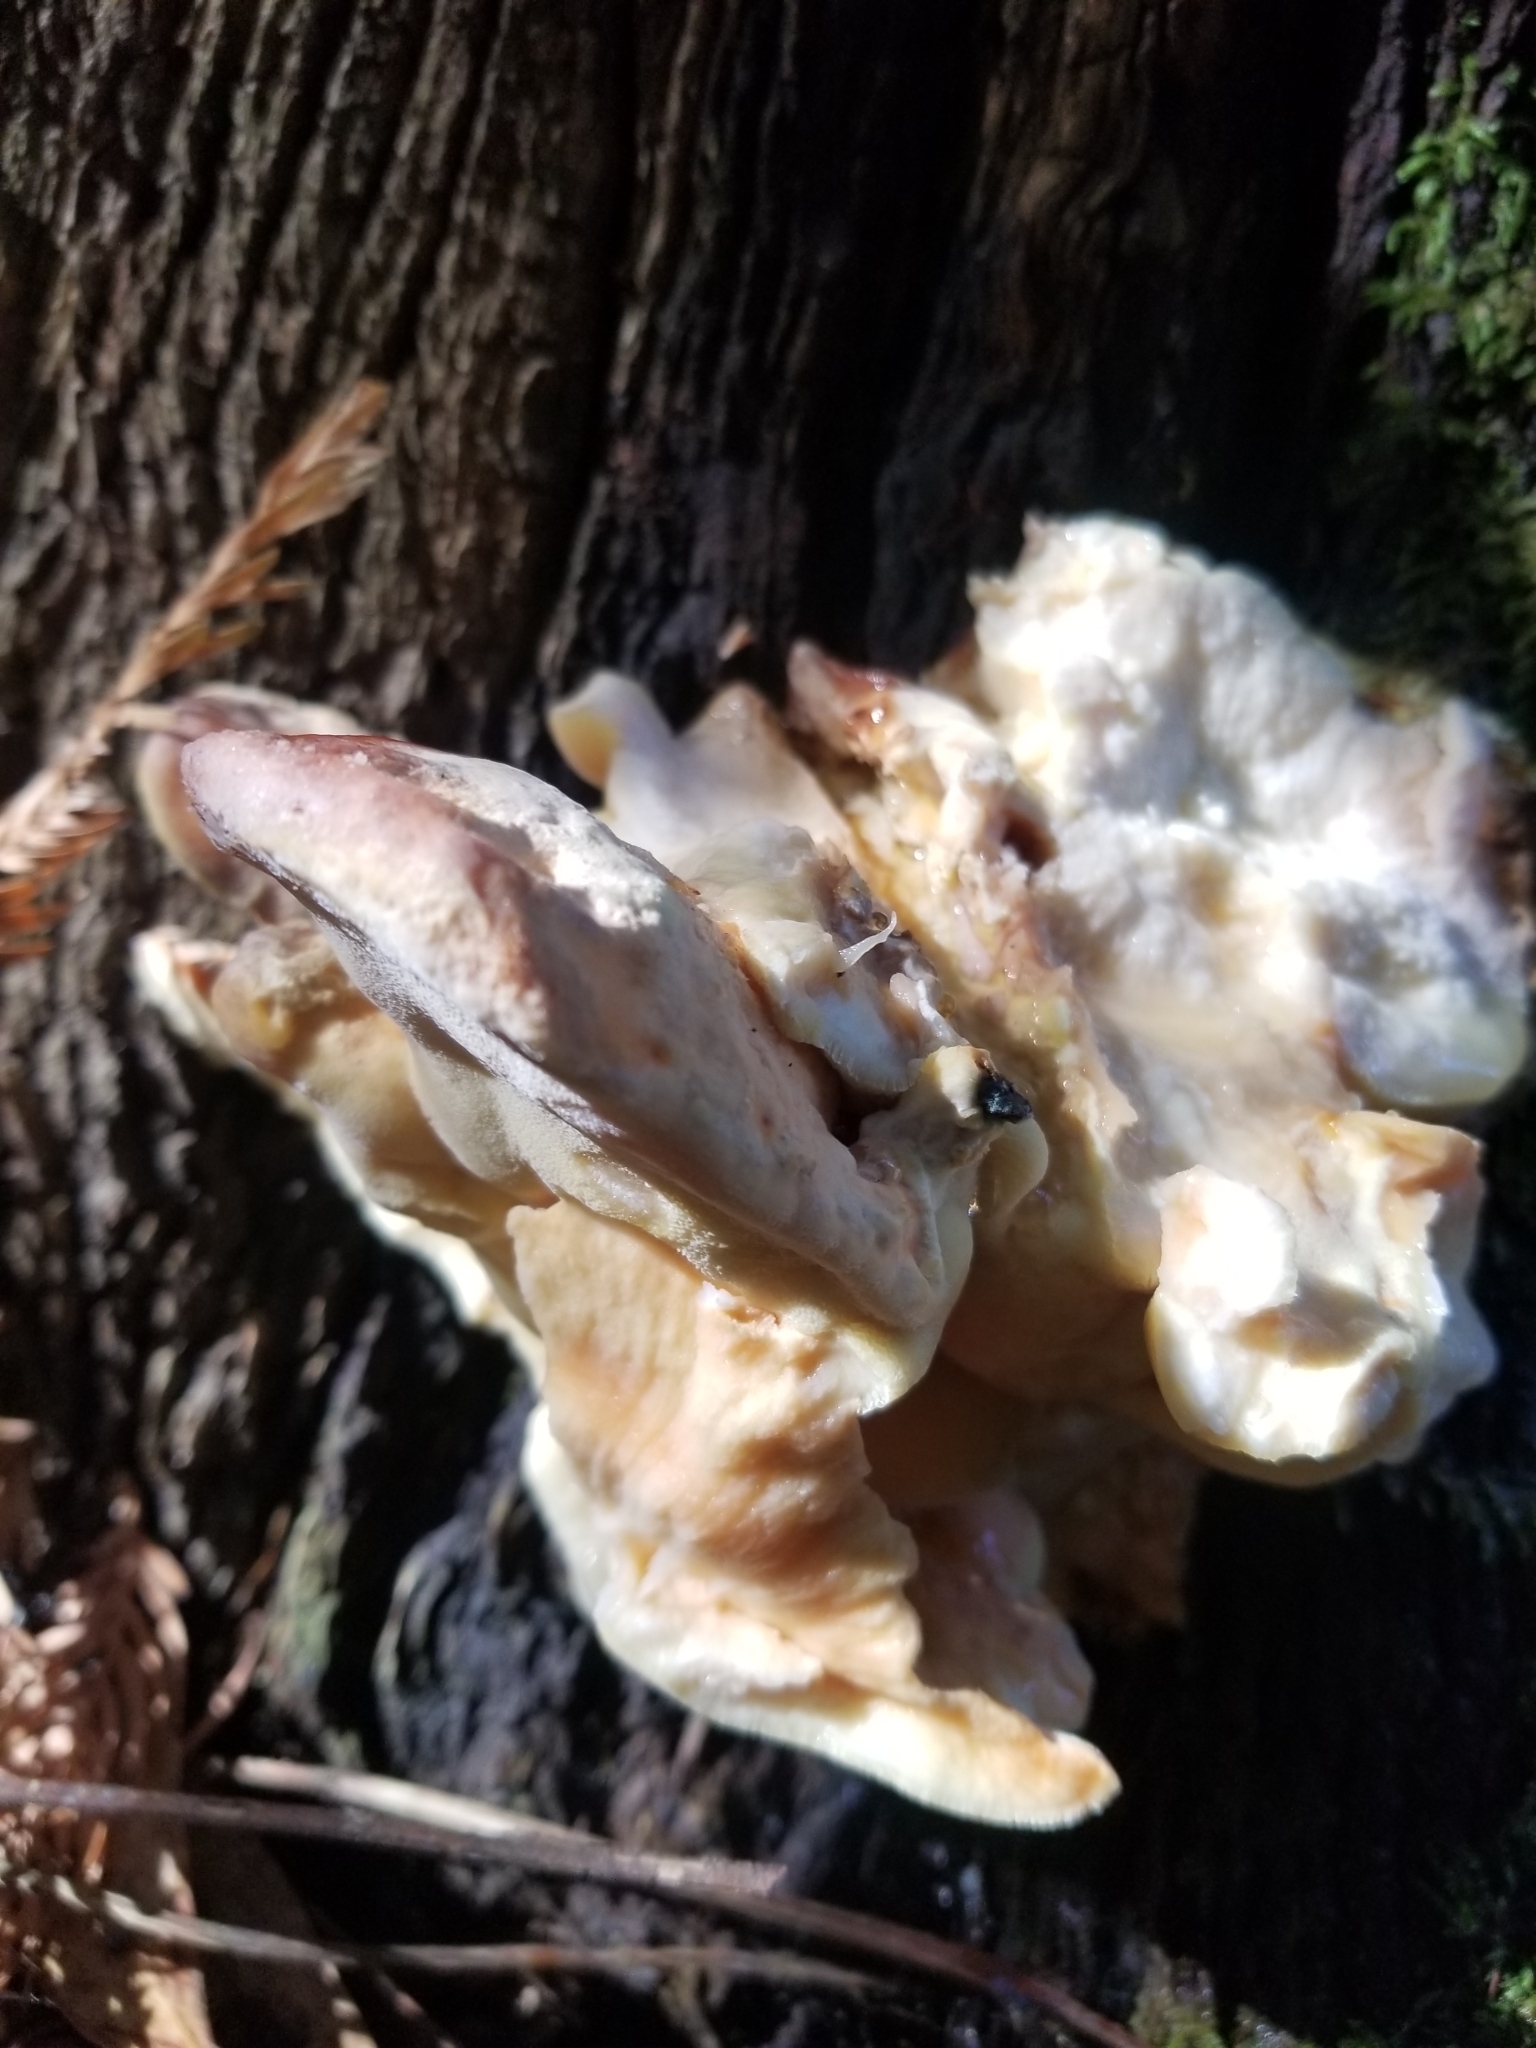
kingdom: Fungi
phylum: Basidiomycota
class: Agaricomycetes
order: Polyporales
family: Laetiporaceae
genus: Laetiporus
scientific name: Laetiporus conifericola
